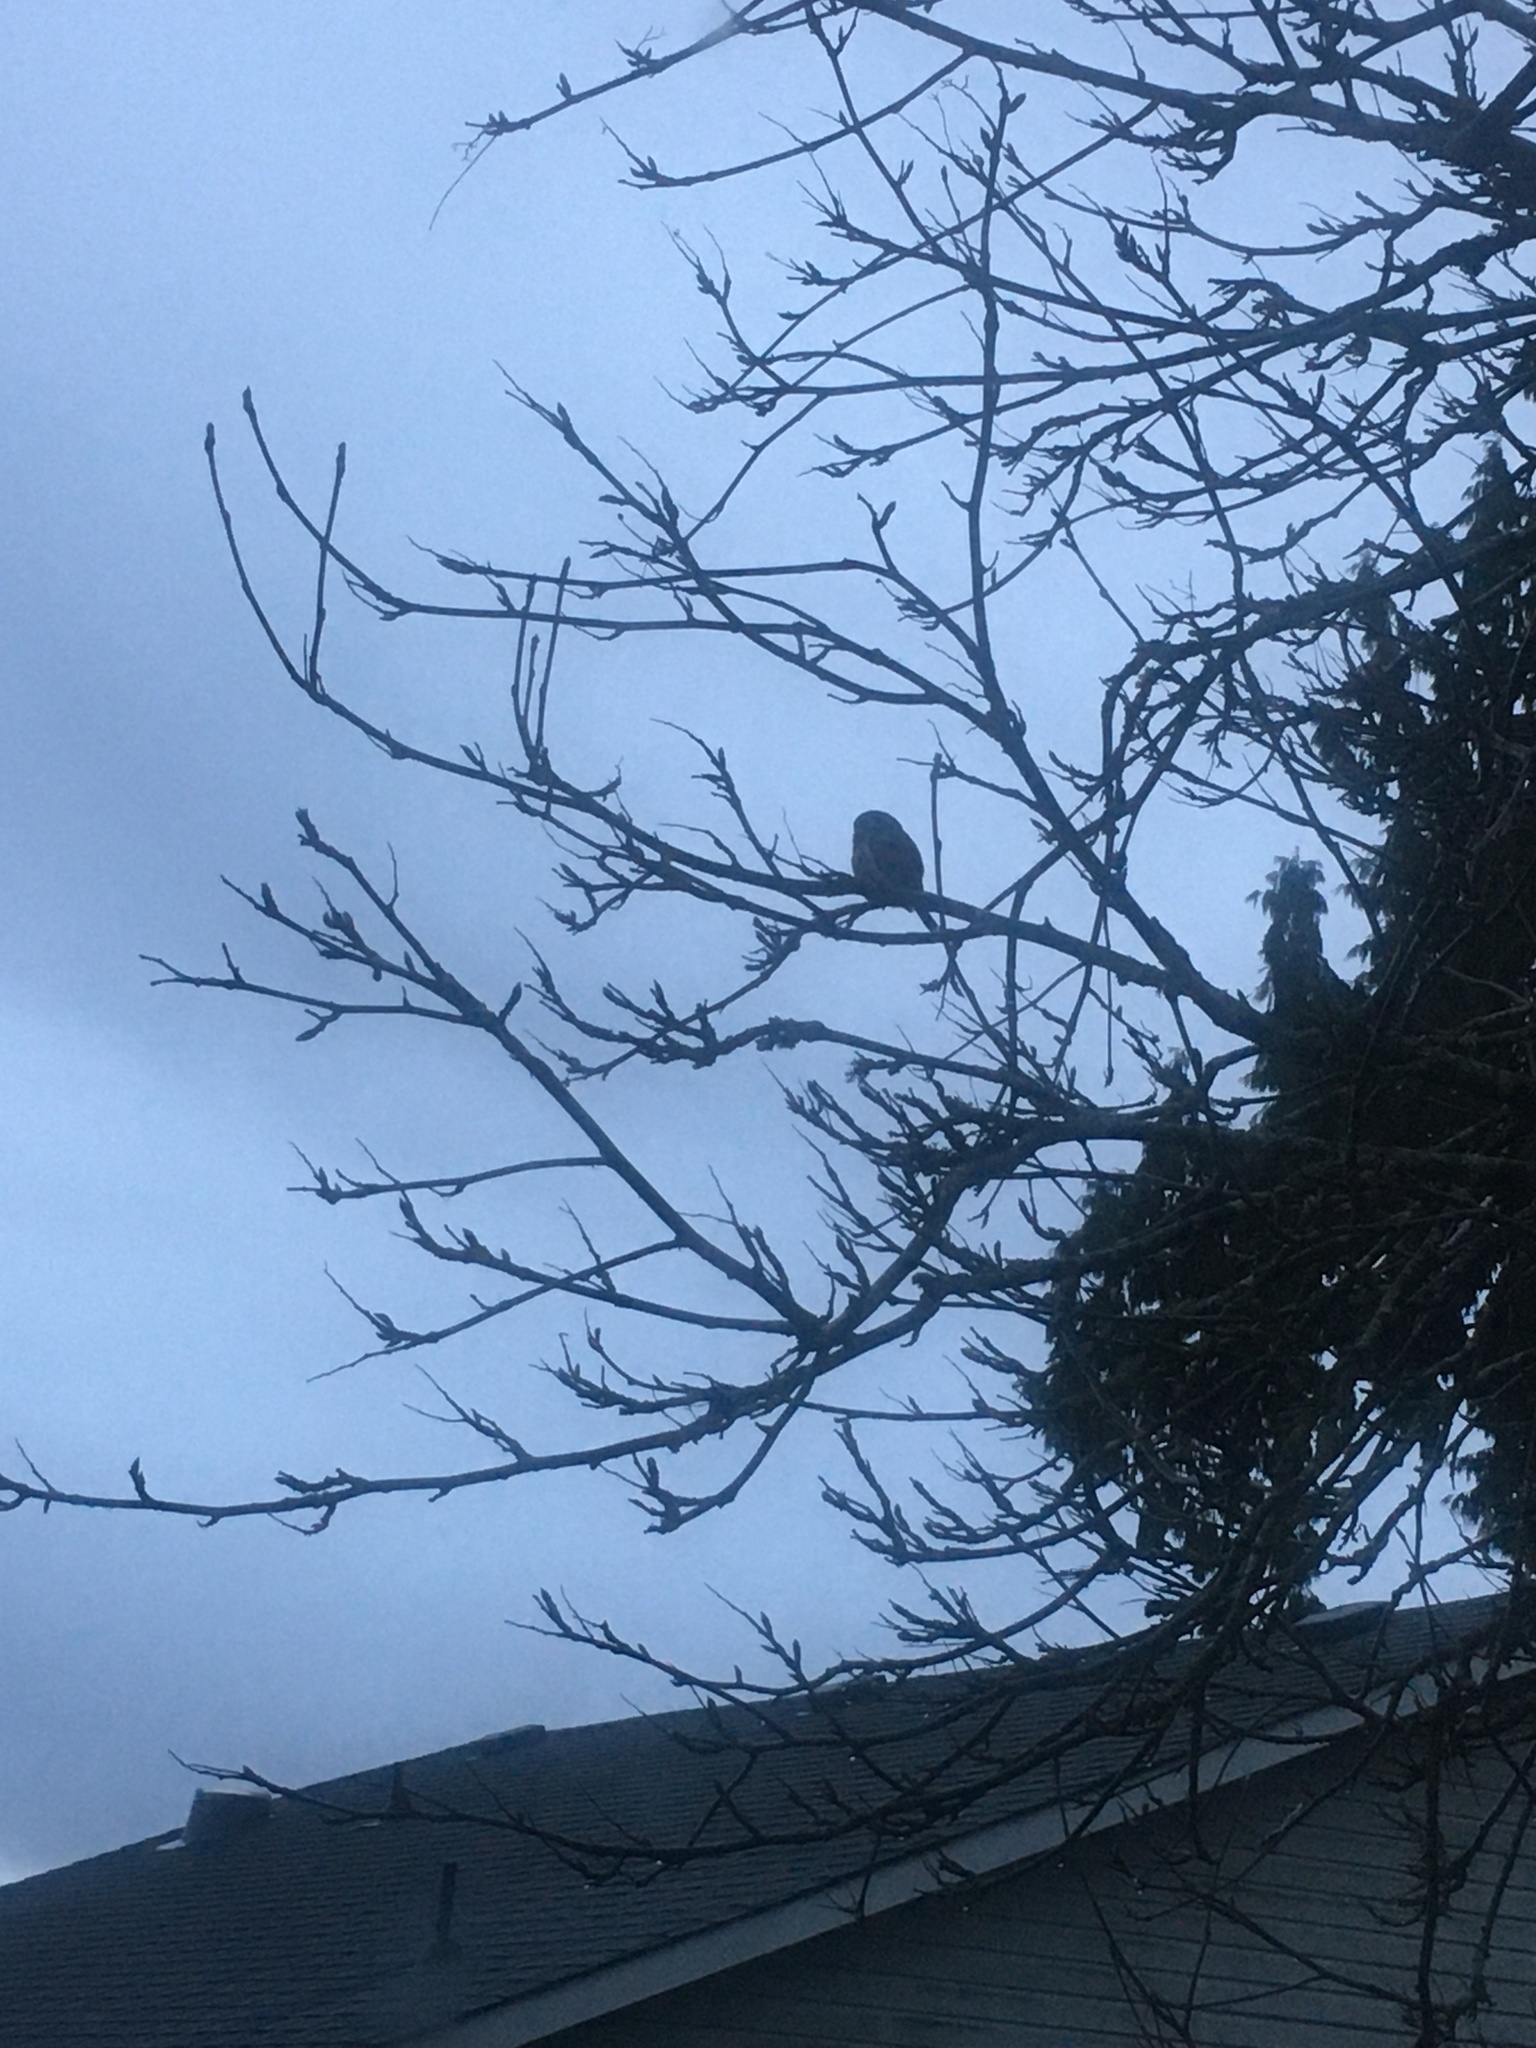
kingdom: Animalia
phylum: Chordata
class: Aves
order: Strigiformes
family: Strigidae
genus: Glaucidium
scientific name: Glaucidium gnoma
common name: Northern pygmy-owl
